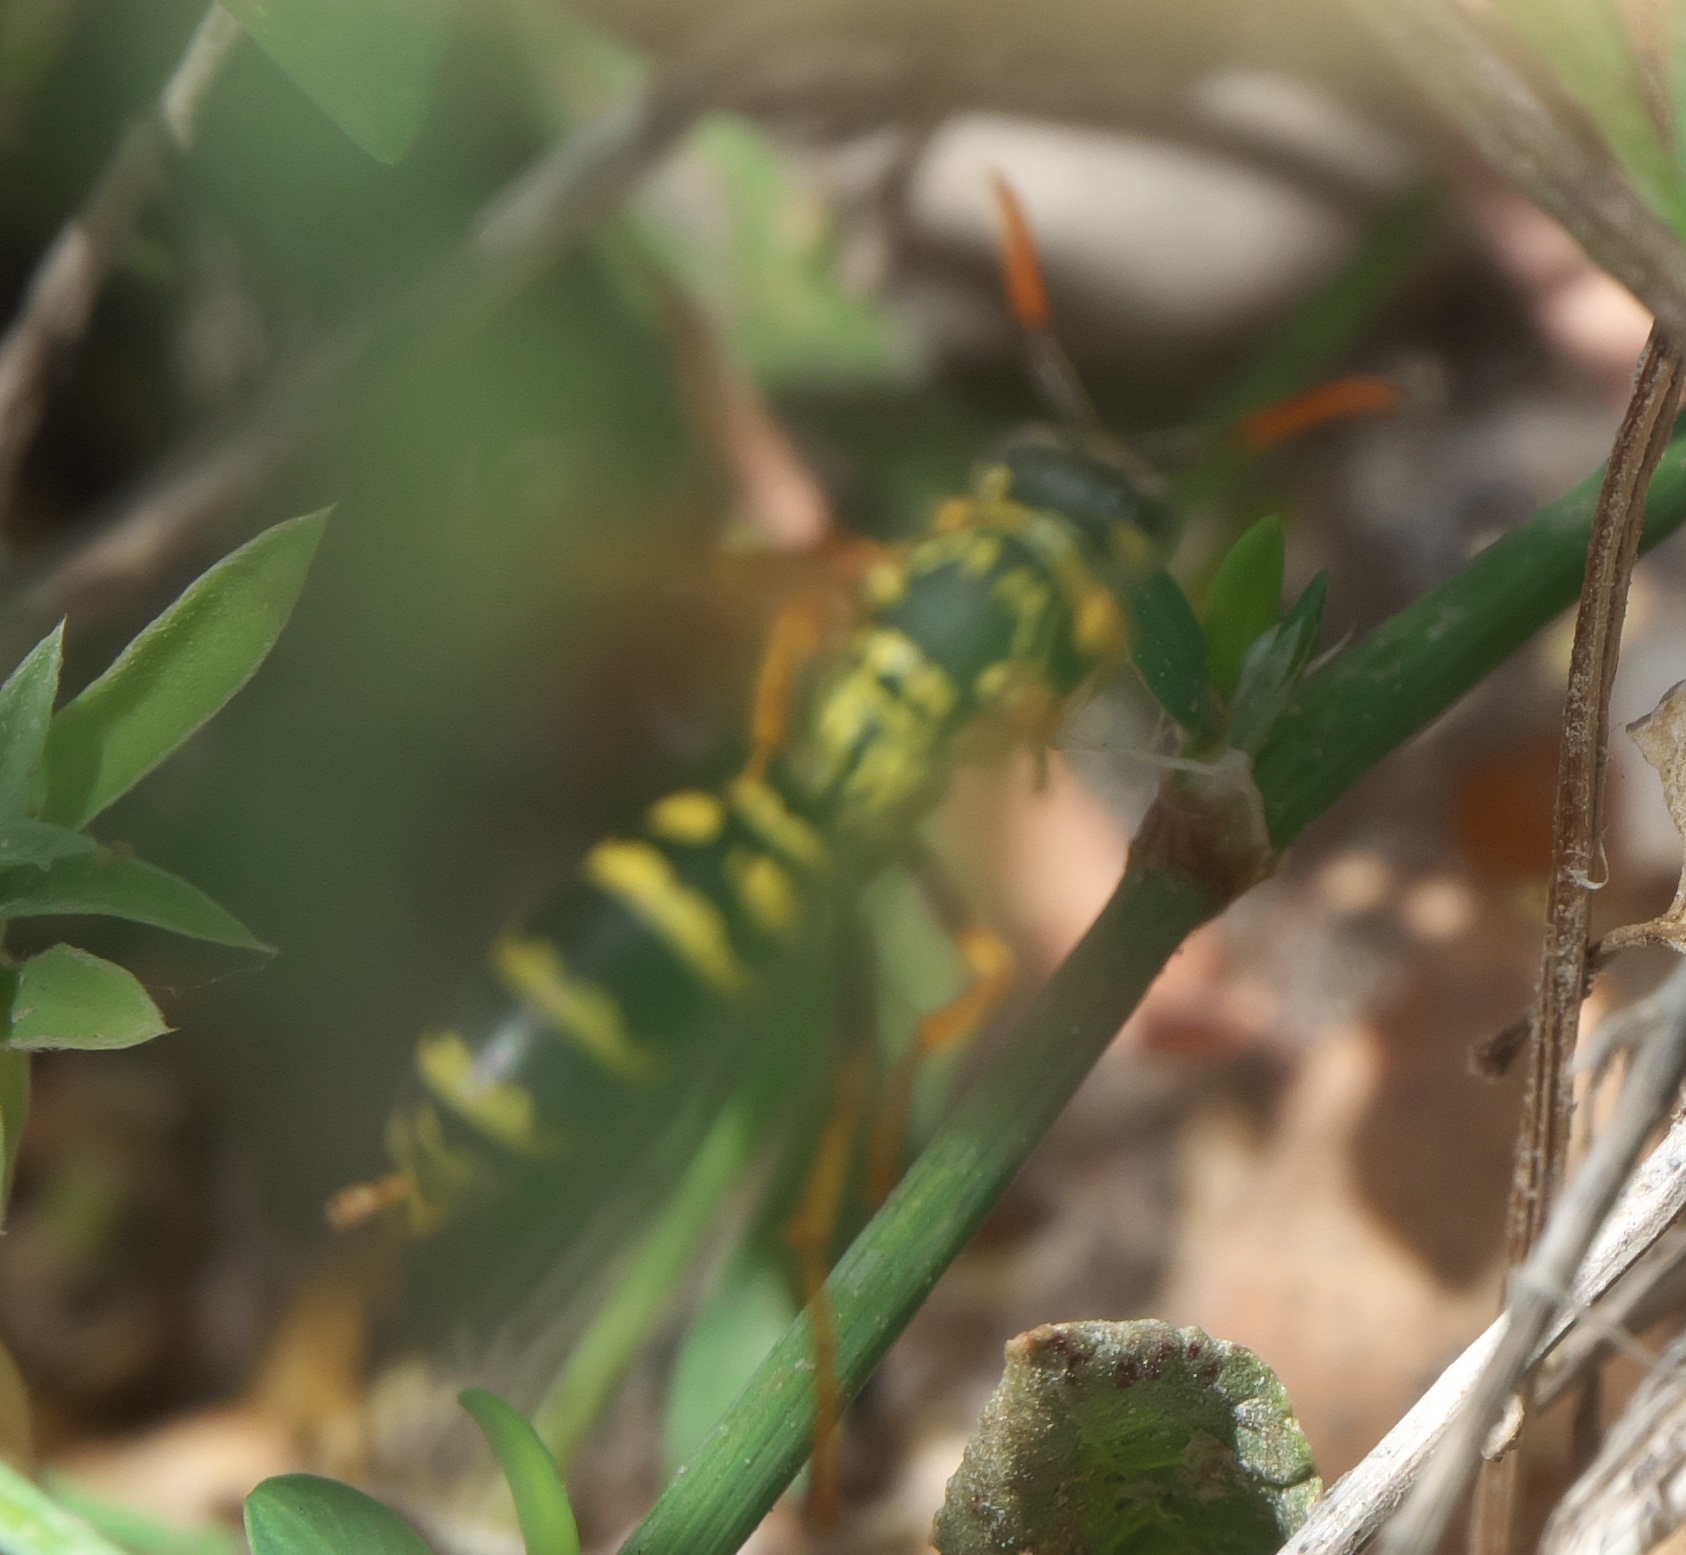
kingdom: Animalia
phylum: Arthropoda
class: Insecta
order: Hymenoptera
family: Eumenidae
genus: Polistes
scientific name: Polistes dominula
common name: Paper wasp
